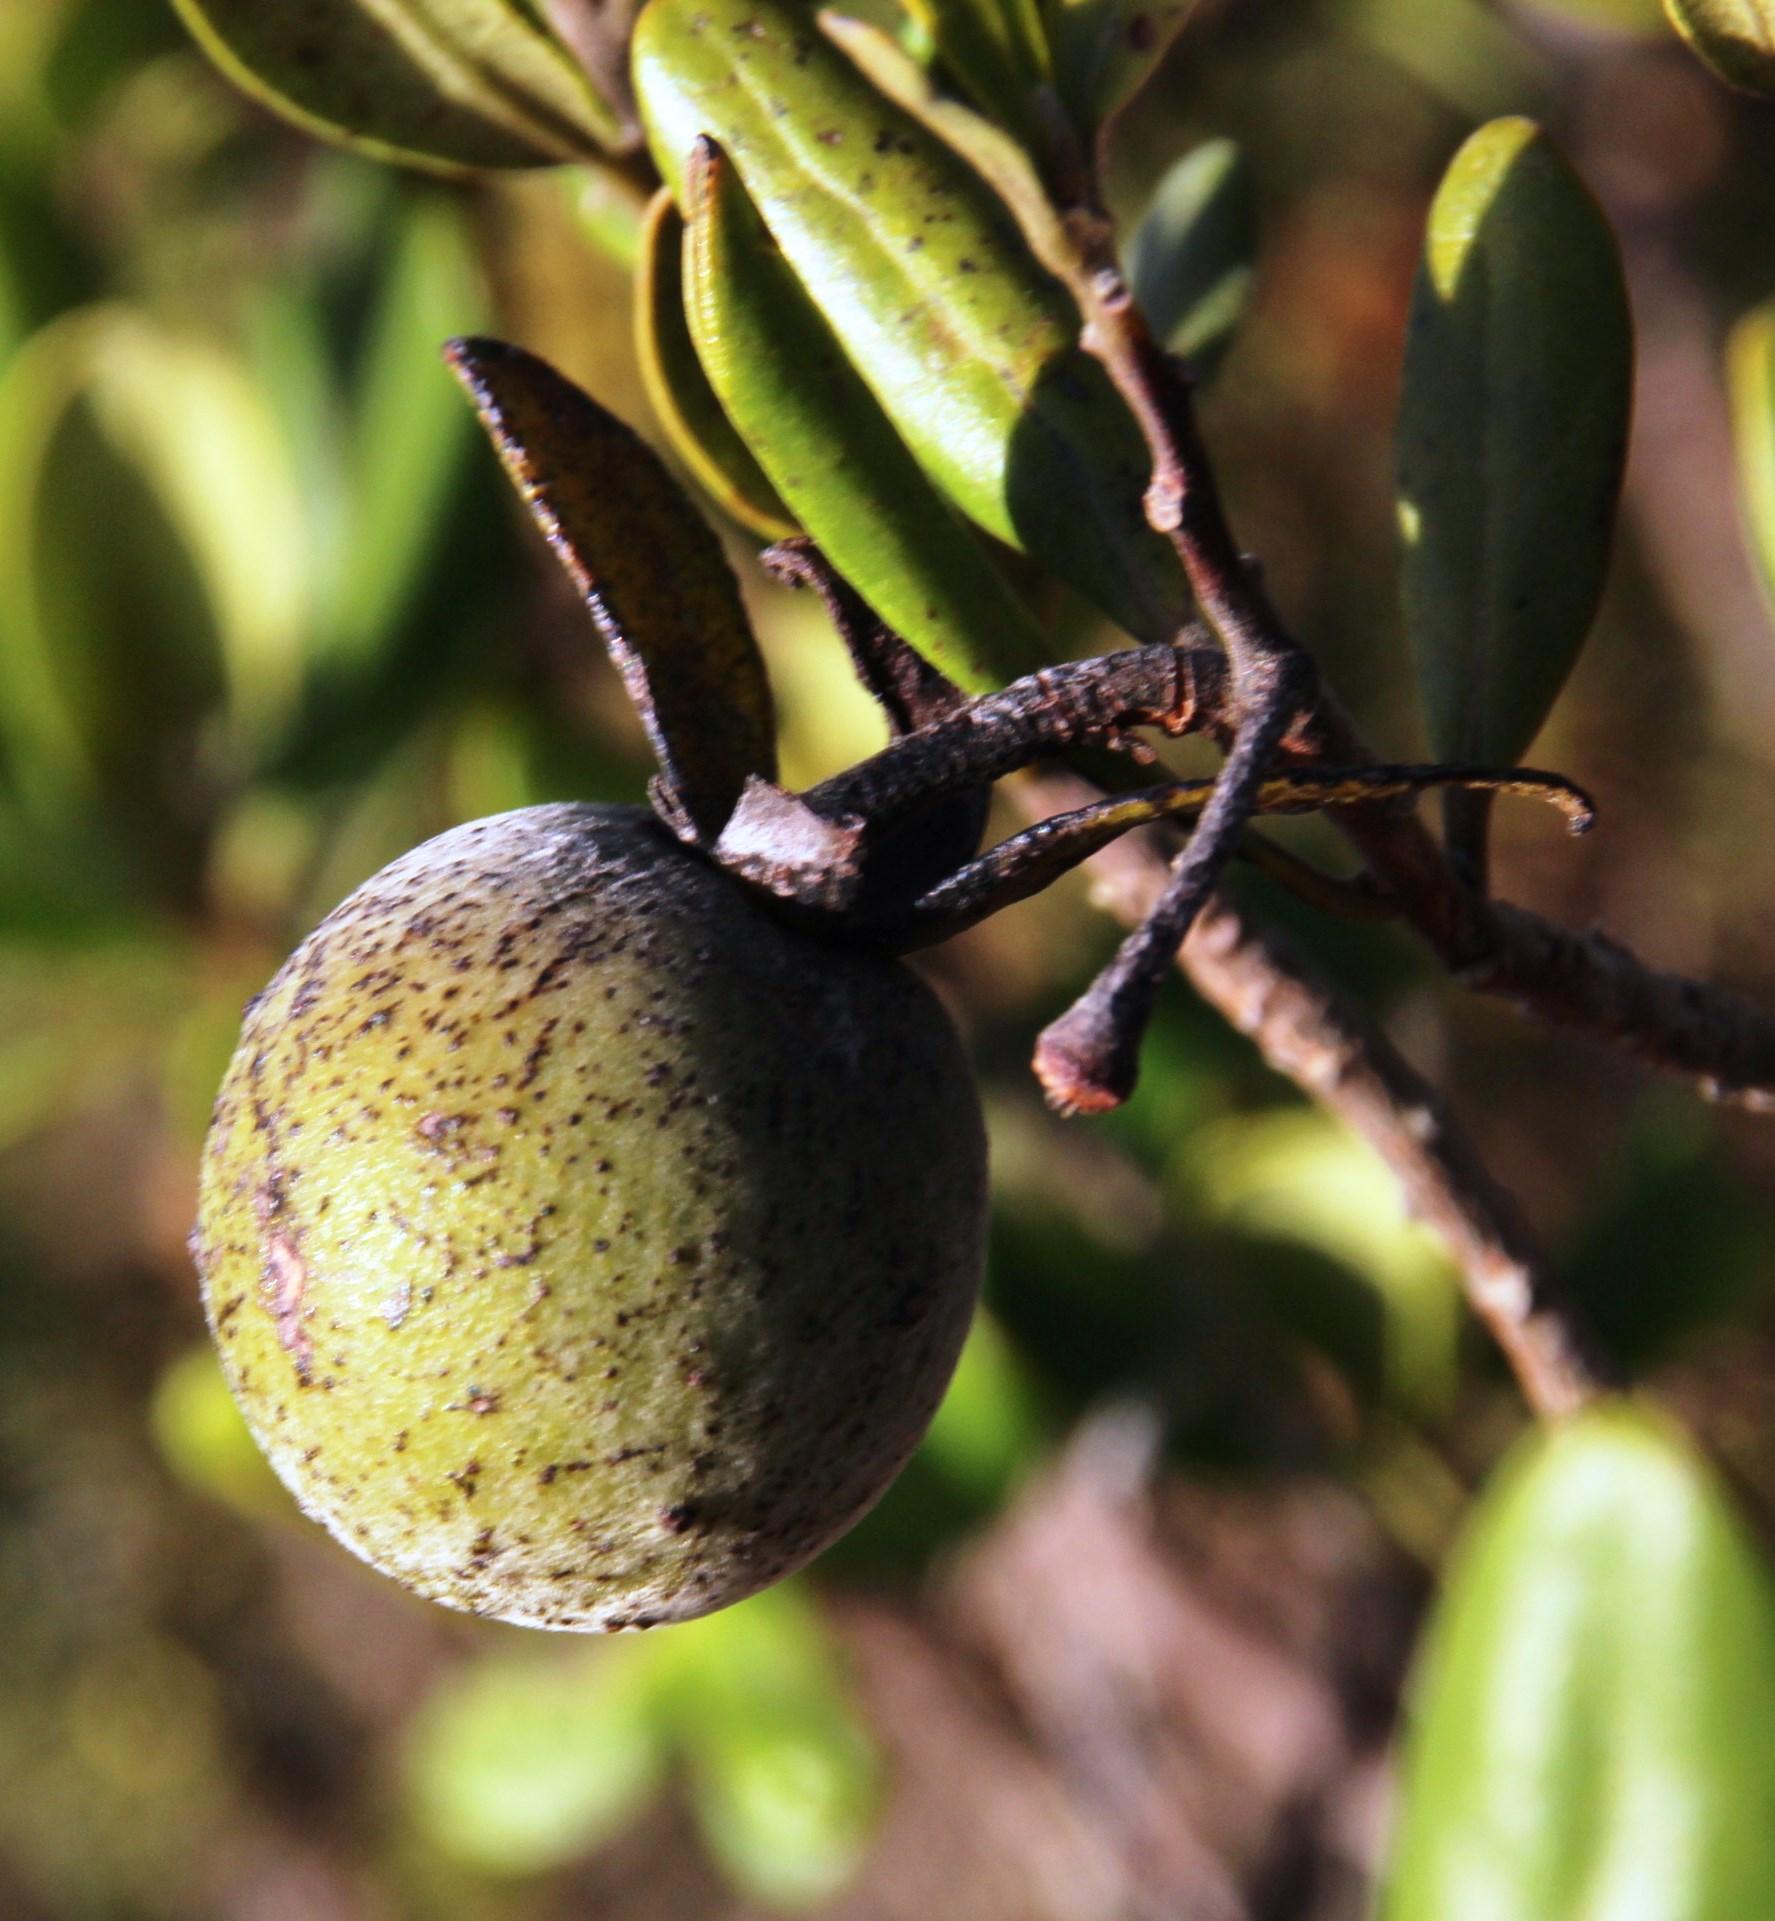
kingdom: Plantae
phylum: Tracheophyta
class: Magnoliopsida
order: Ericales
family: Ebenaceae
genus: Diospyros
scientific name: Diospyros dichrophylla
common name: Common star-apple
